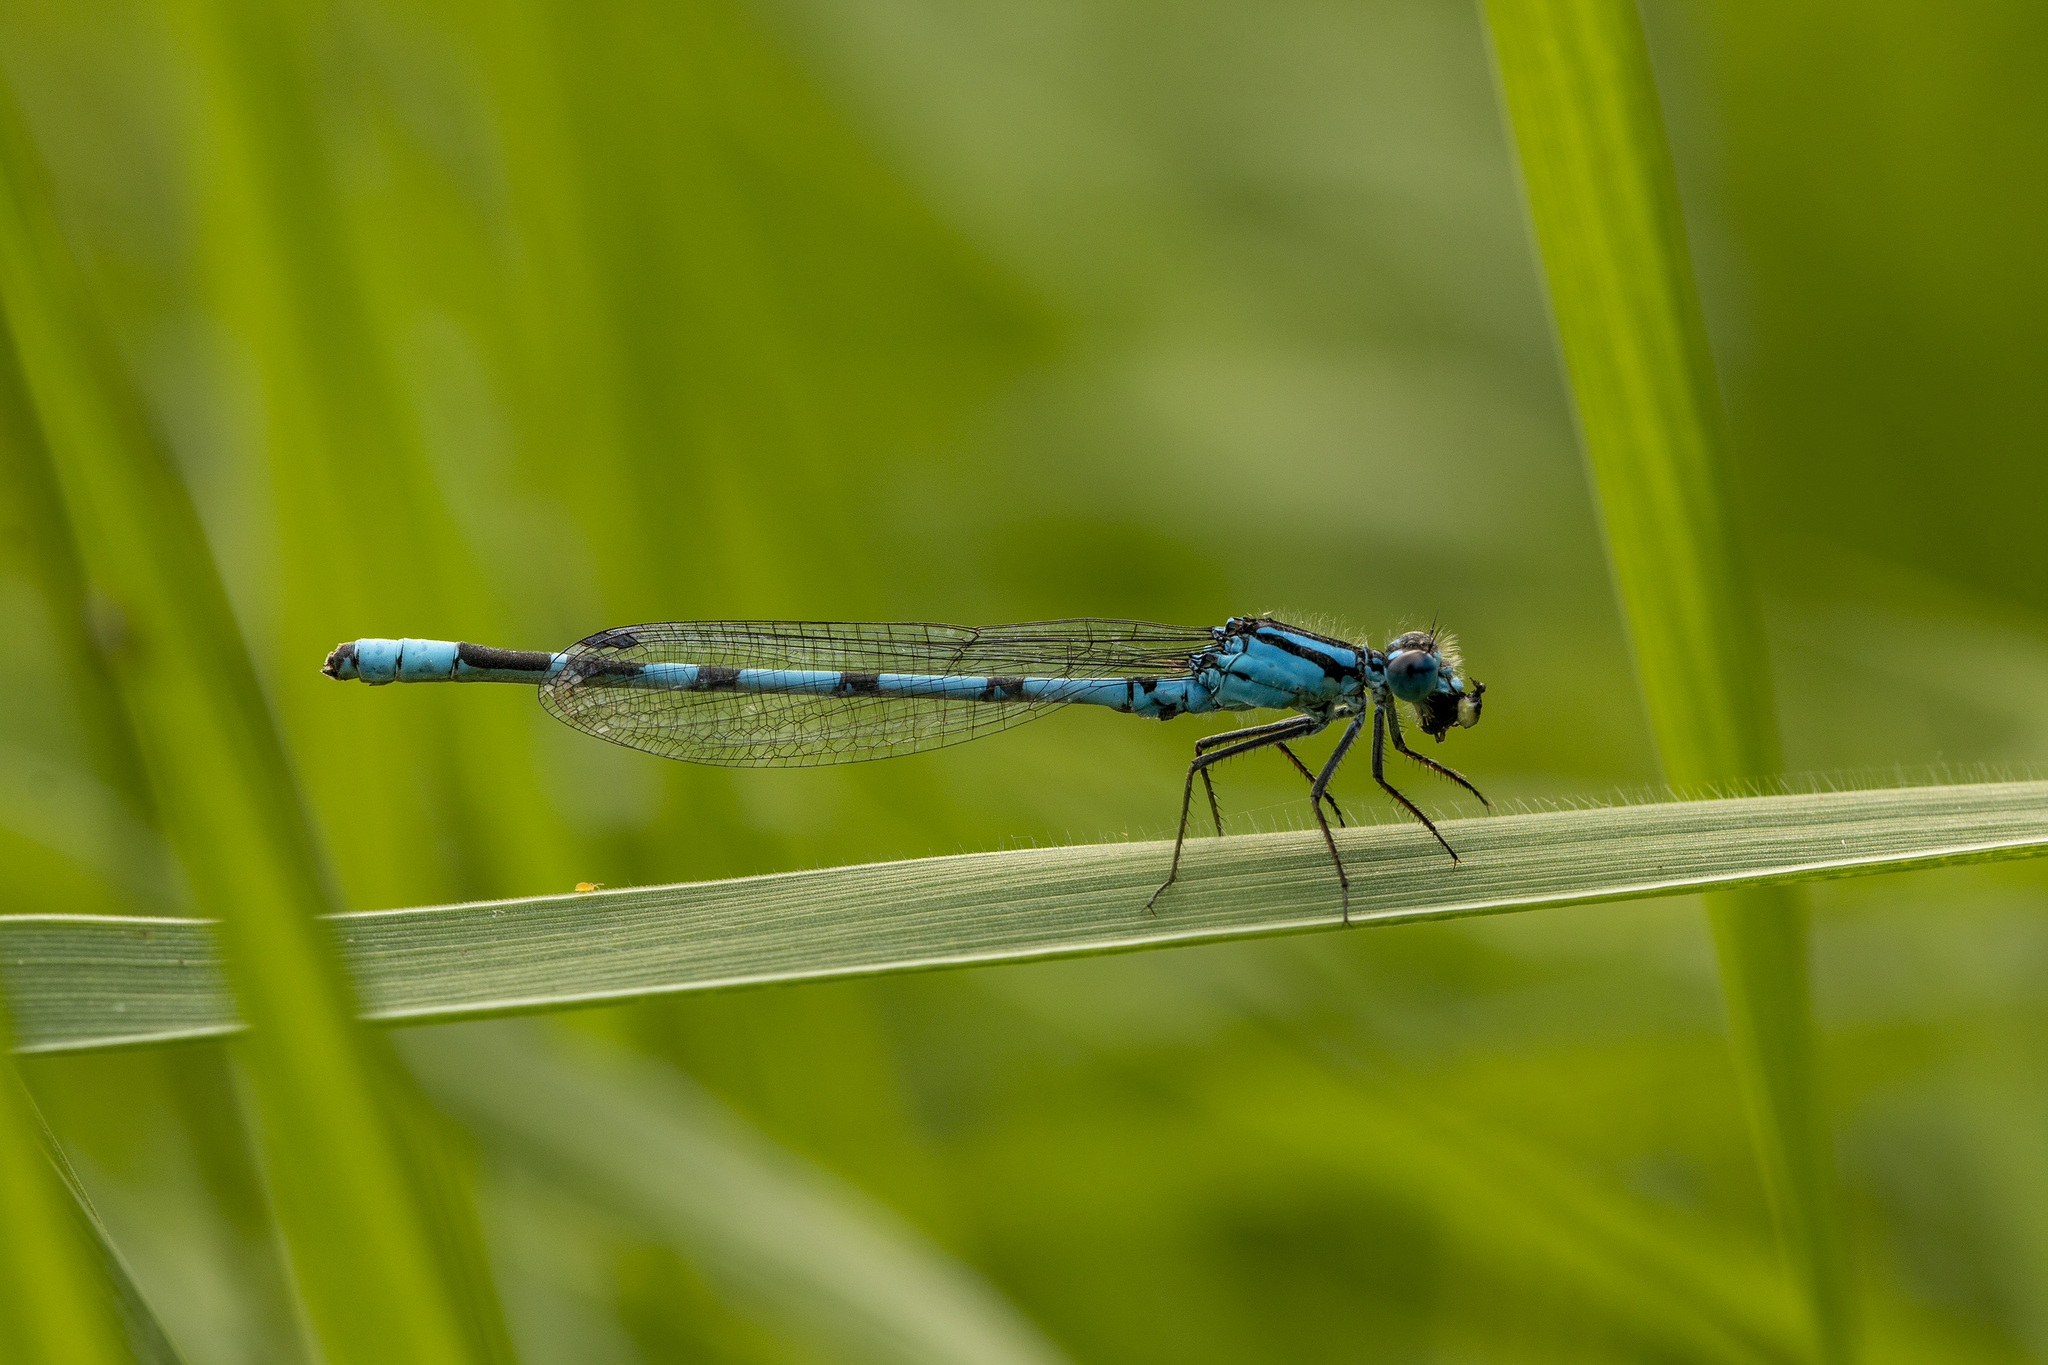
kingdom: Animalia
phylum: Arthropoda
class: Insecta
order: Odonata
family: Coenagrionidae
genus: Enallagma
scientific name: Enallagma cyathigerum
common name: Common blue damselfly
